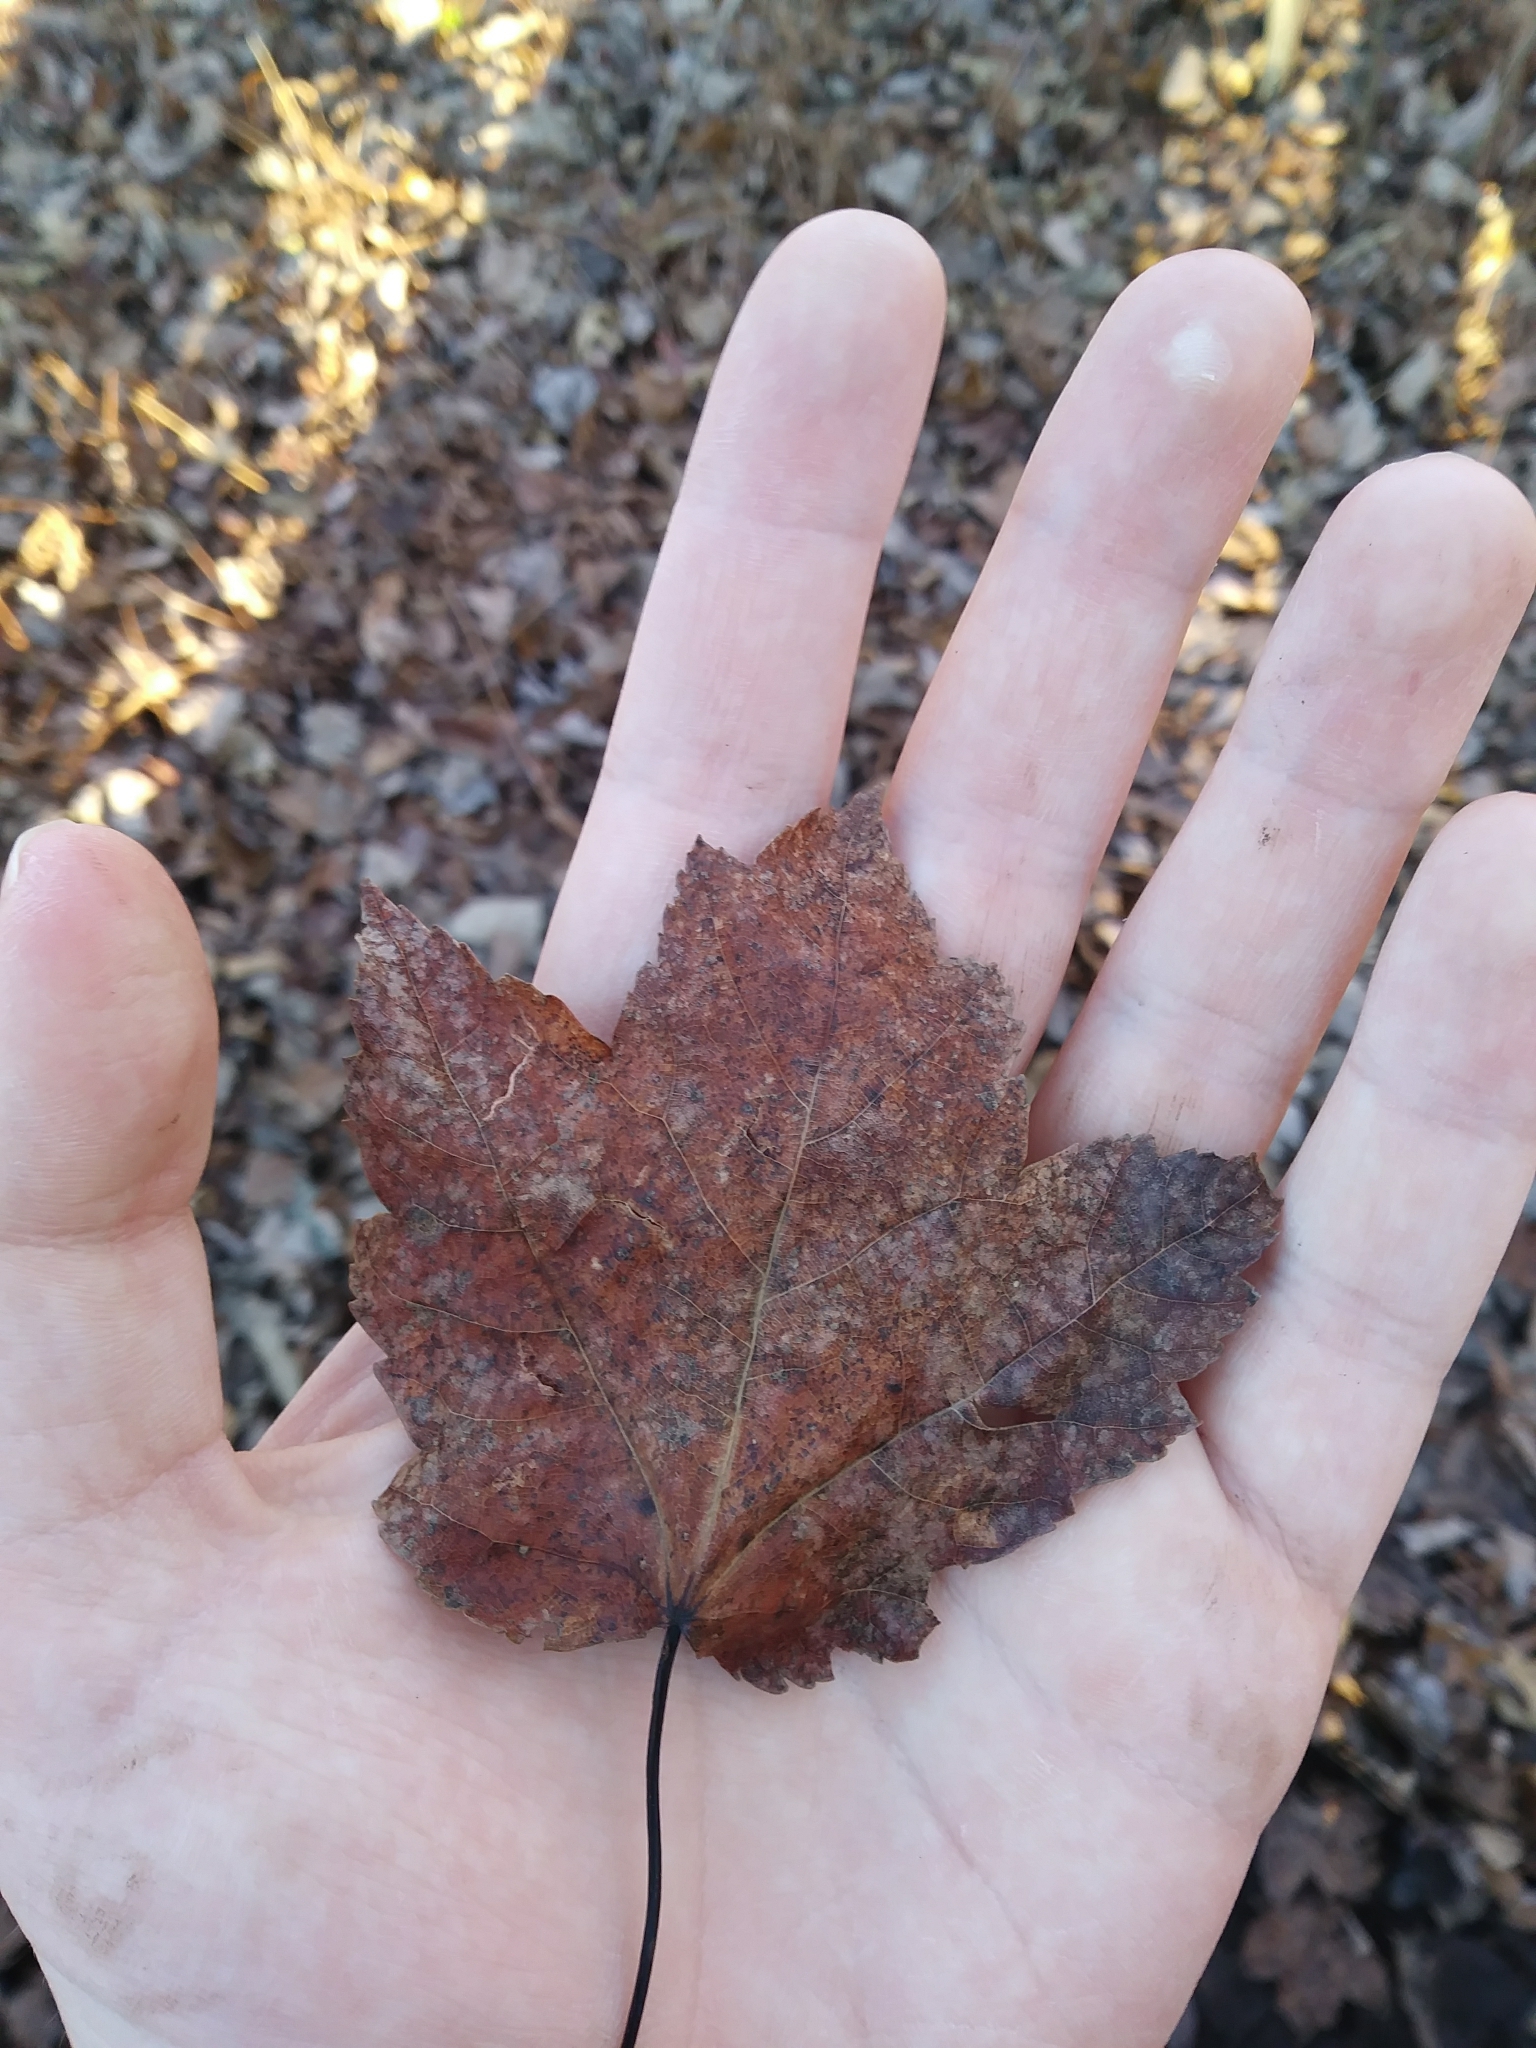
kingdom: Plantae
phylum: Tracheophyta
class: Magnoliopsida
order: Sapindales
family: Sapindaceae
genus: Acer
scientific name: Acer rubrum
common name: Red maple
